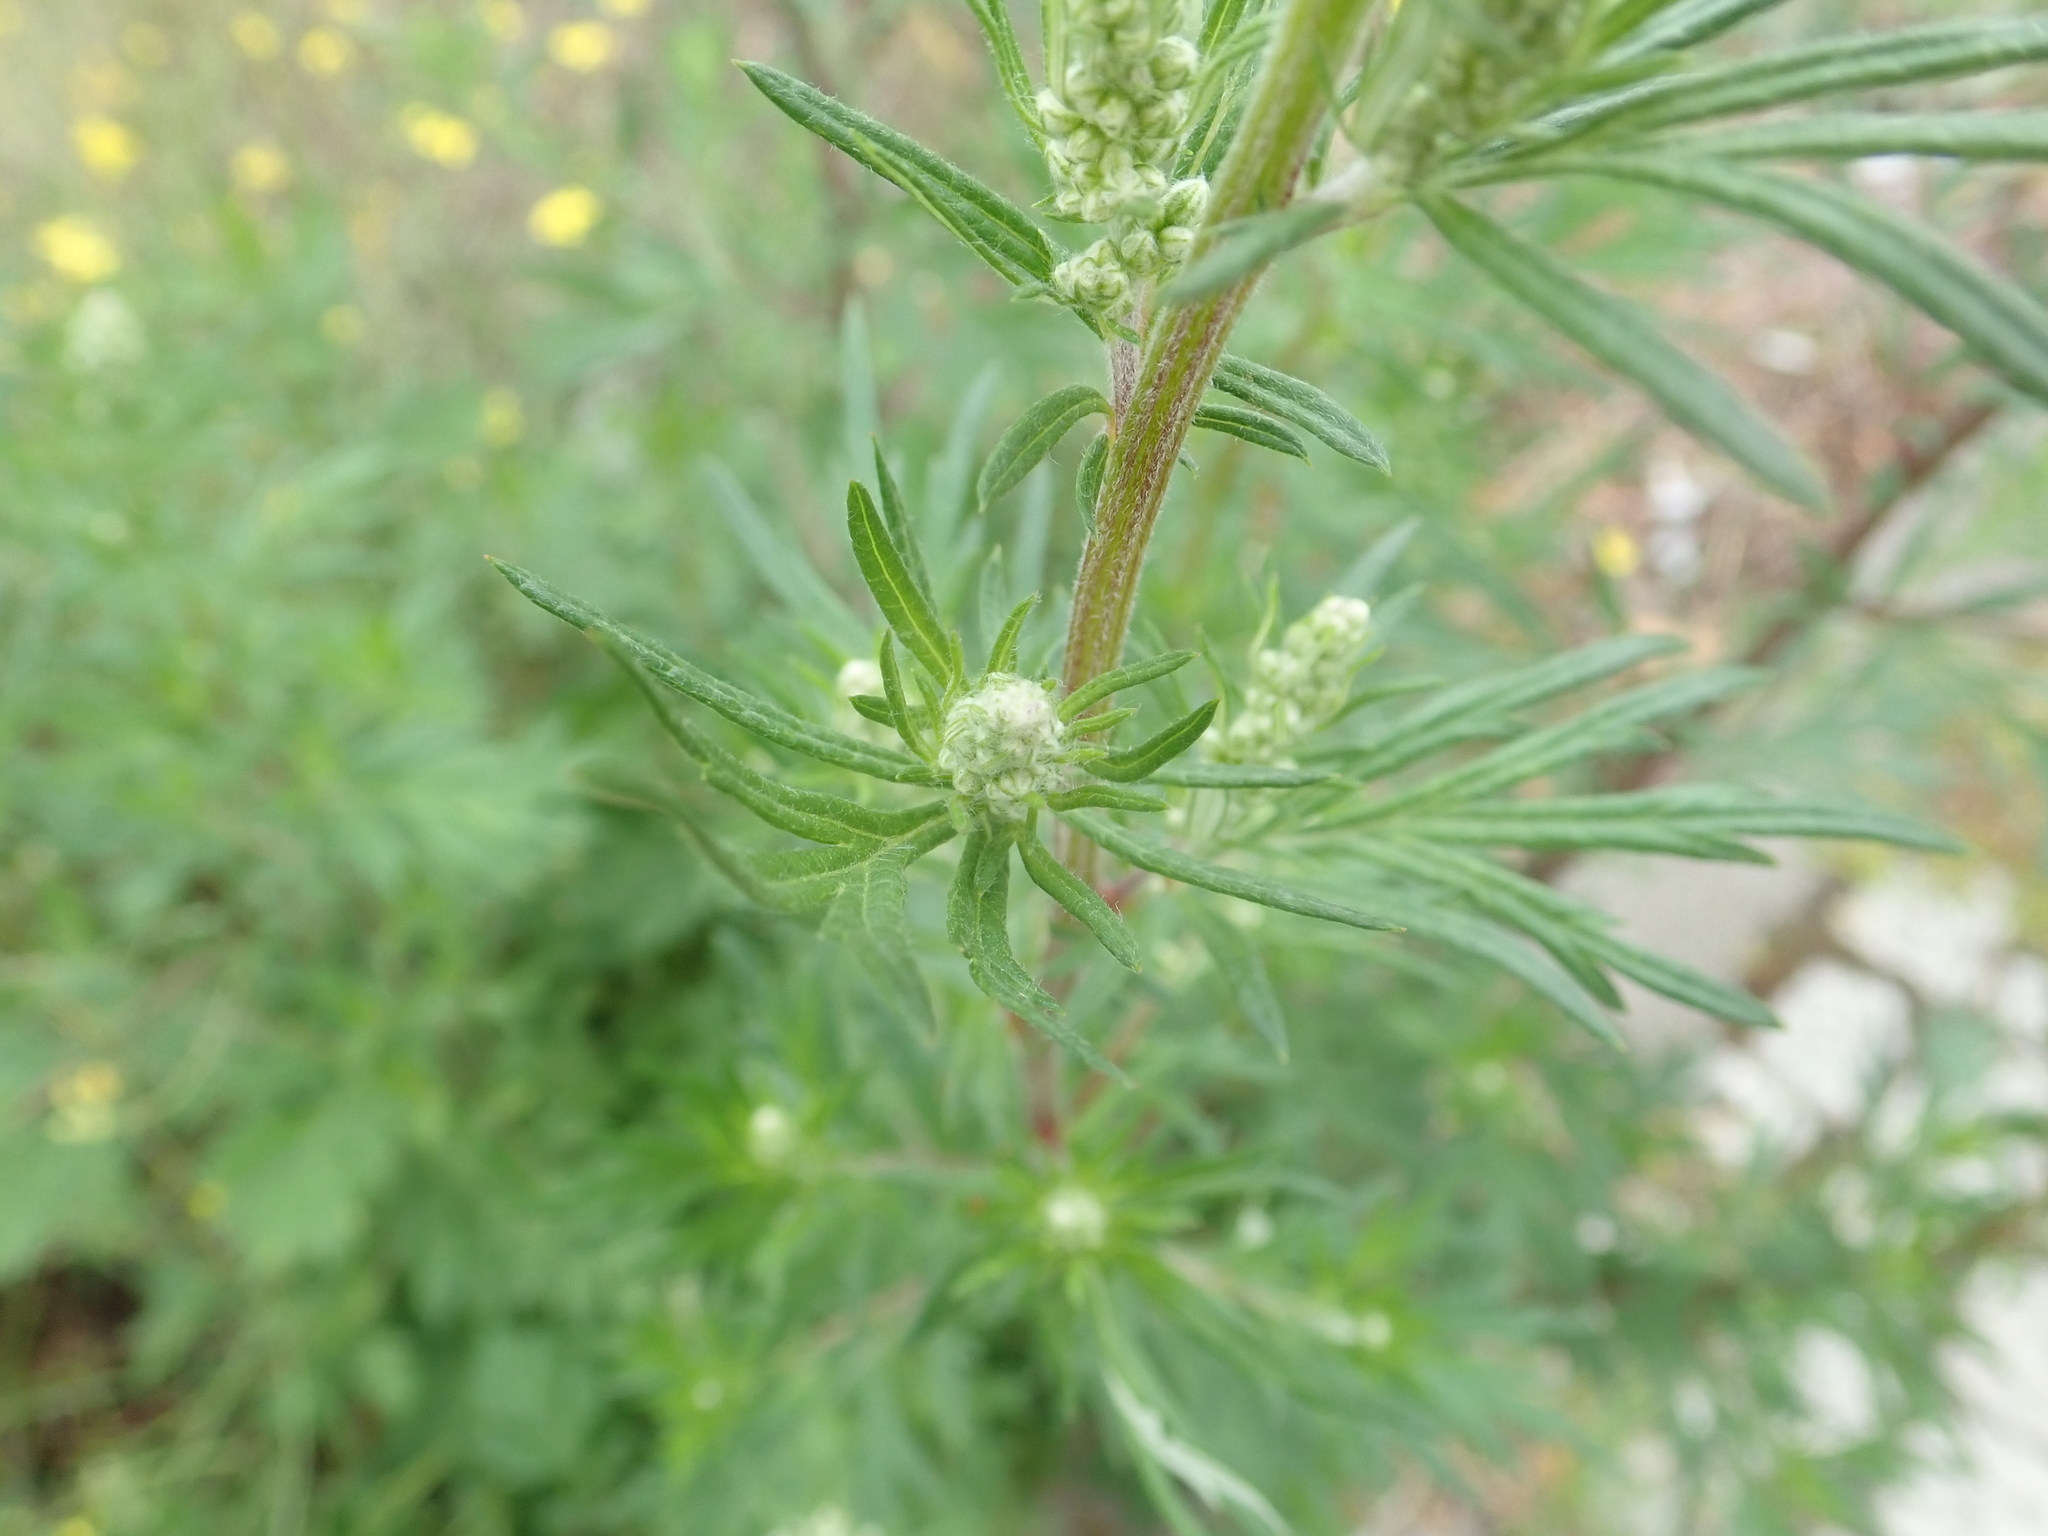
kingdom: Plantae
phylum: Tracheophyta
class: Magnoliopsida
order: Asterales
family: Asteraceae
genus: Artemisia
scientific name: Artemisia vulgaris
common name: Mugwort
